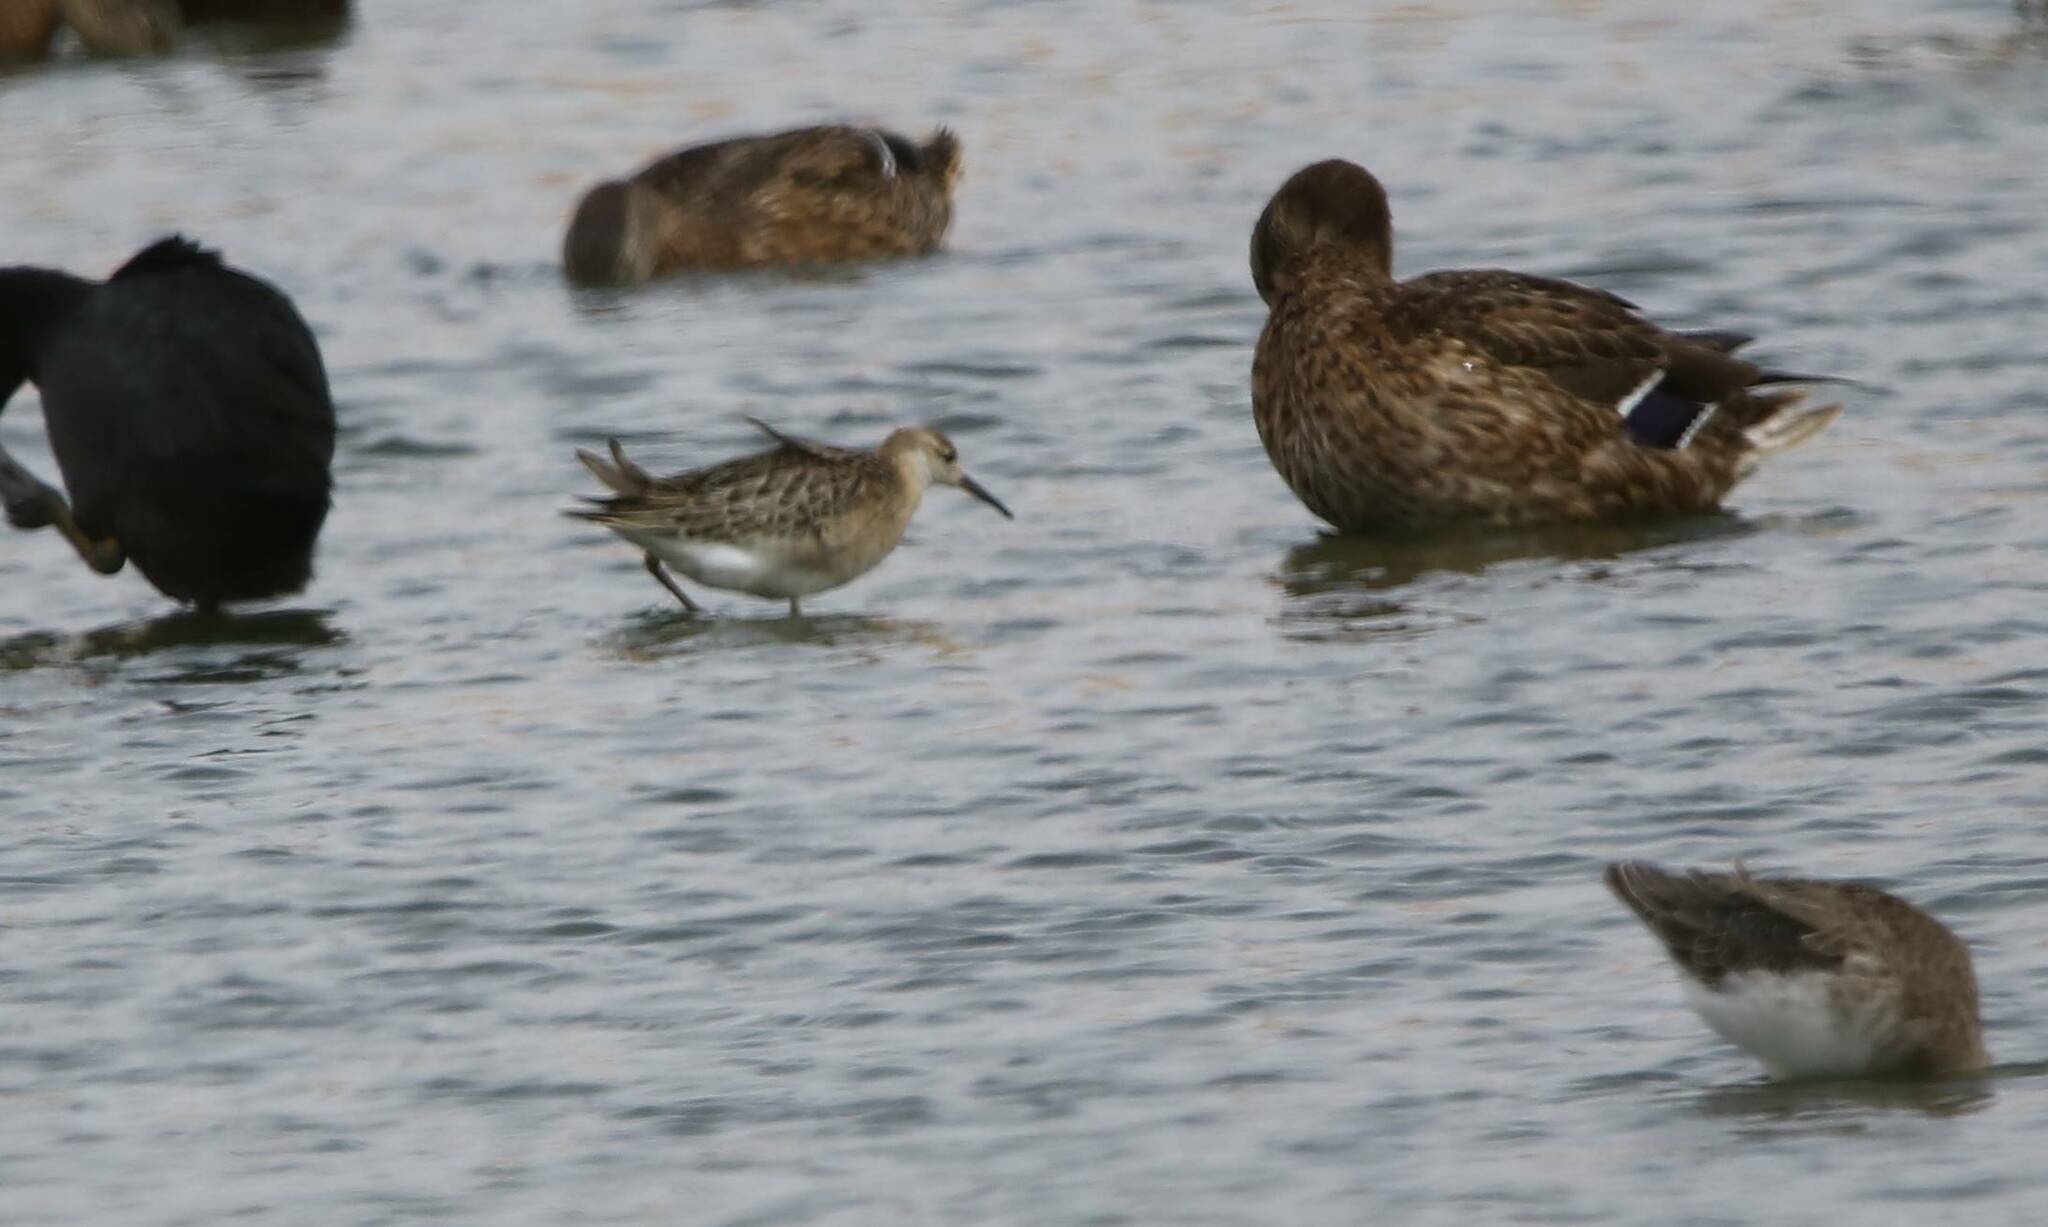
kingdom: Animalia
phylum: Chordata
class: Aves
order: Charadriiformes
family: Scolopacidae
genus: Calidris
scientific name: Calidris pugnax
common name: Ruff
